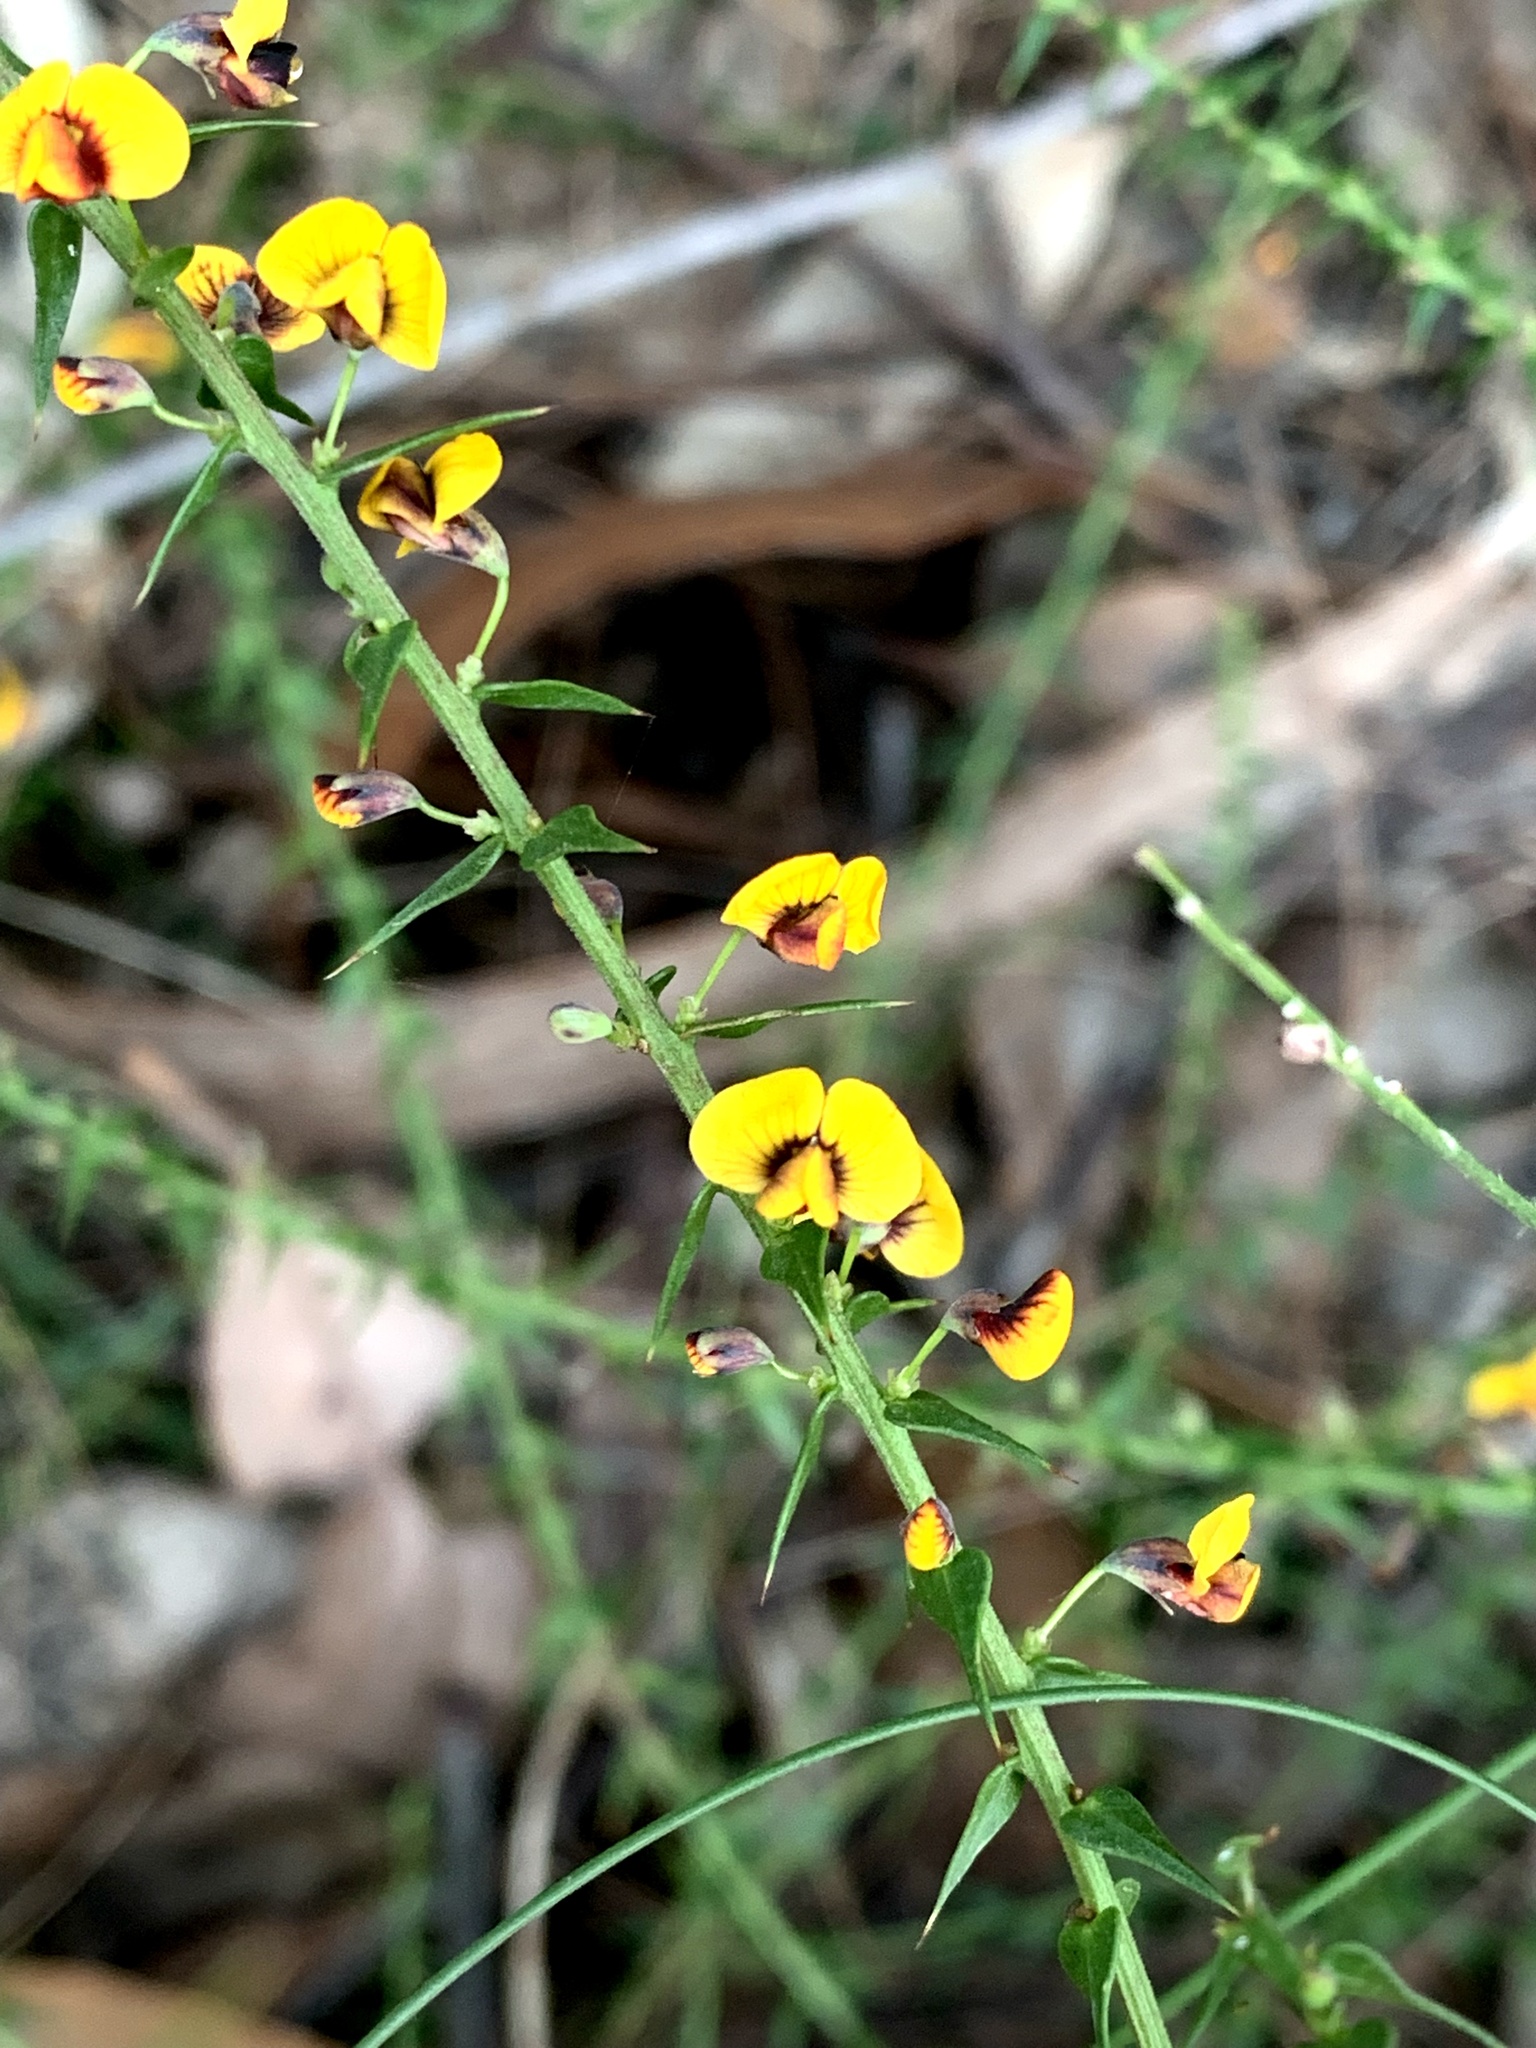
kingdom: Plantae
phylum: Tracheophyta
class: Magnoliopsida
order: Fabales
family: Fabaceae
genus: Daviesia
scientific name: Daviesia ulicifolia
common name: Gorse bitter-pea
